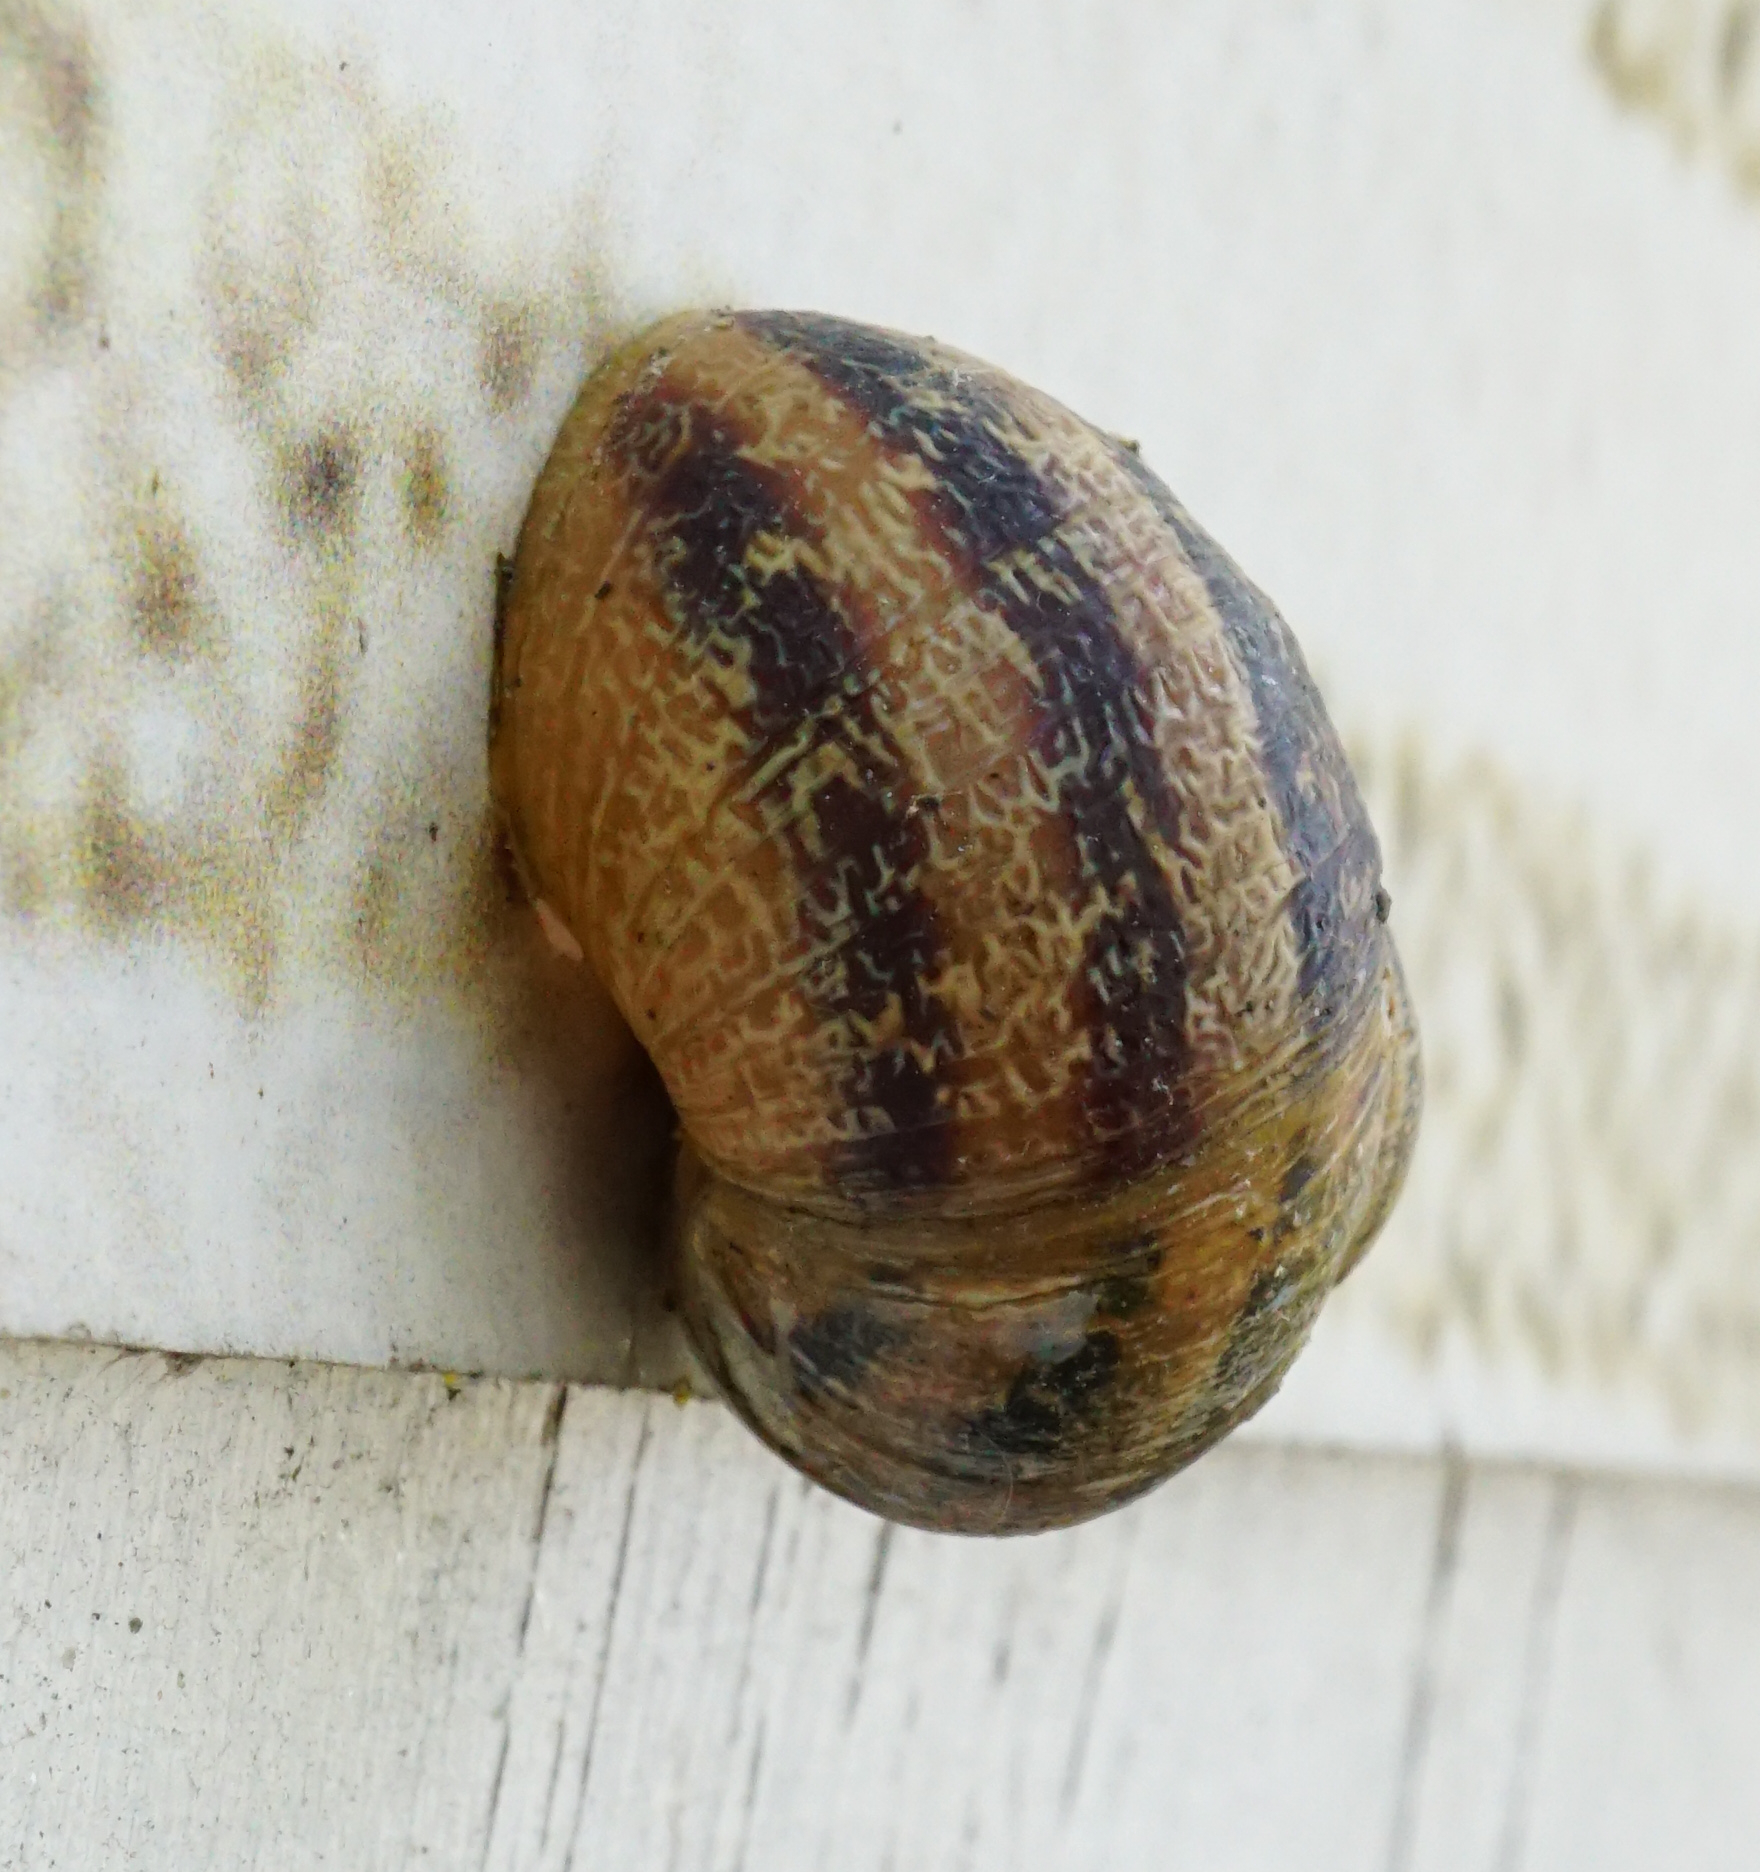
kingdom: Animalia
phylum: Mollusca
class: Gastropoda
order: Stylommatophora
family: Helicidae
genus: Cornu
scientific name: Cornu aspersum
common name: Brown garden snail
